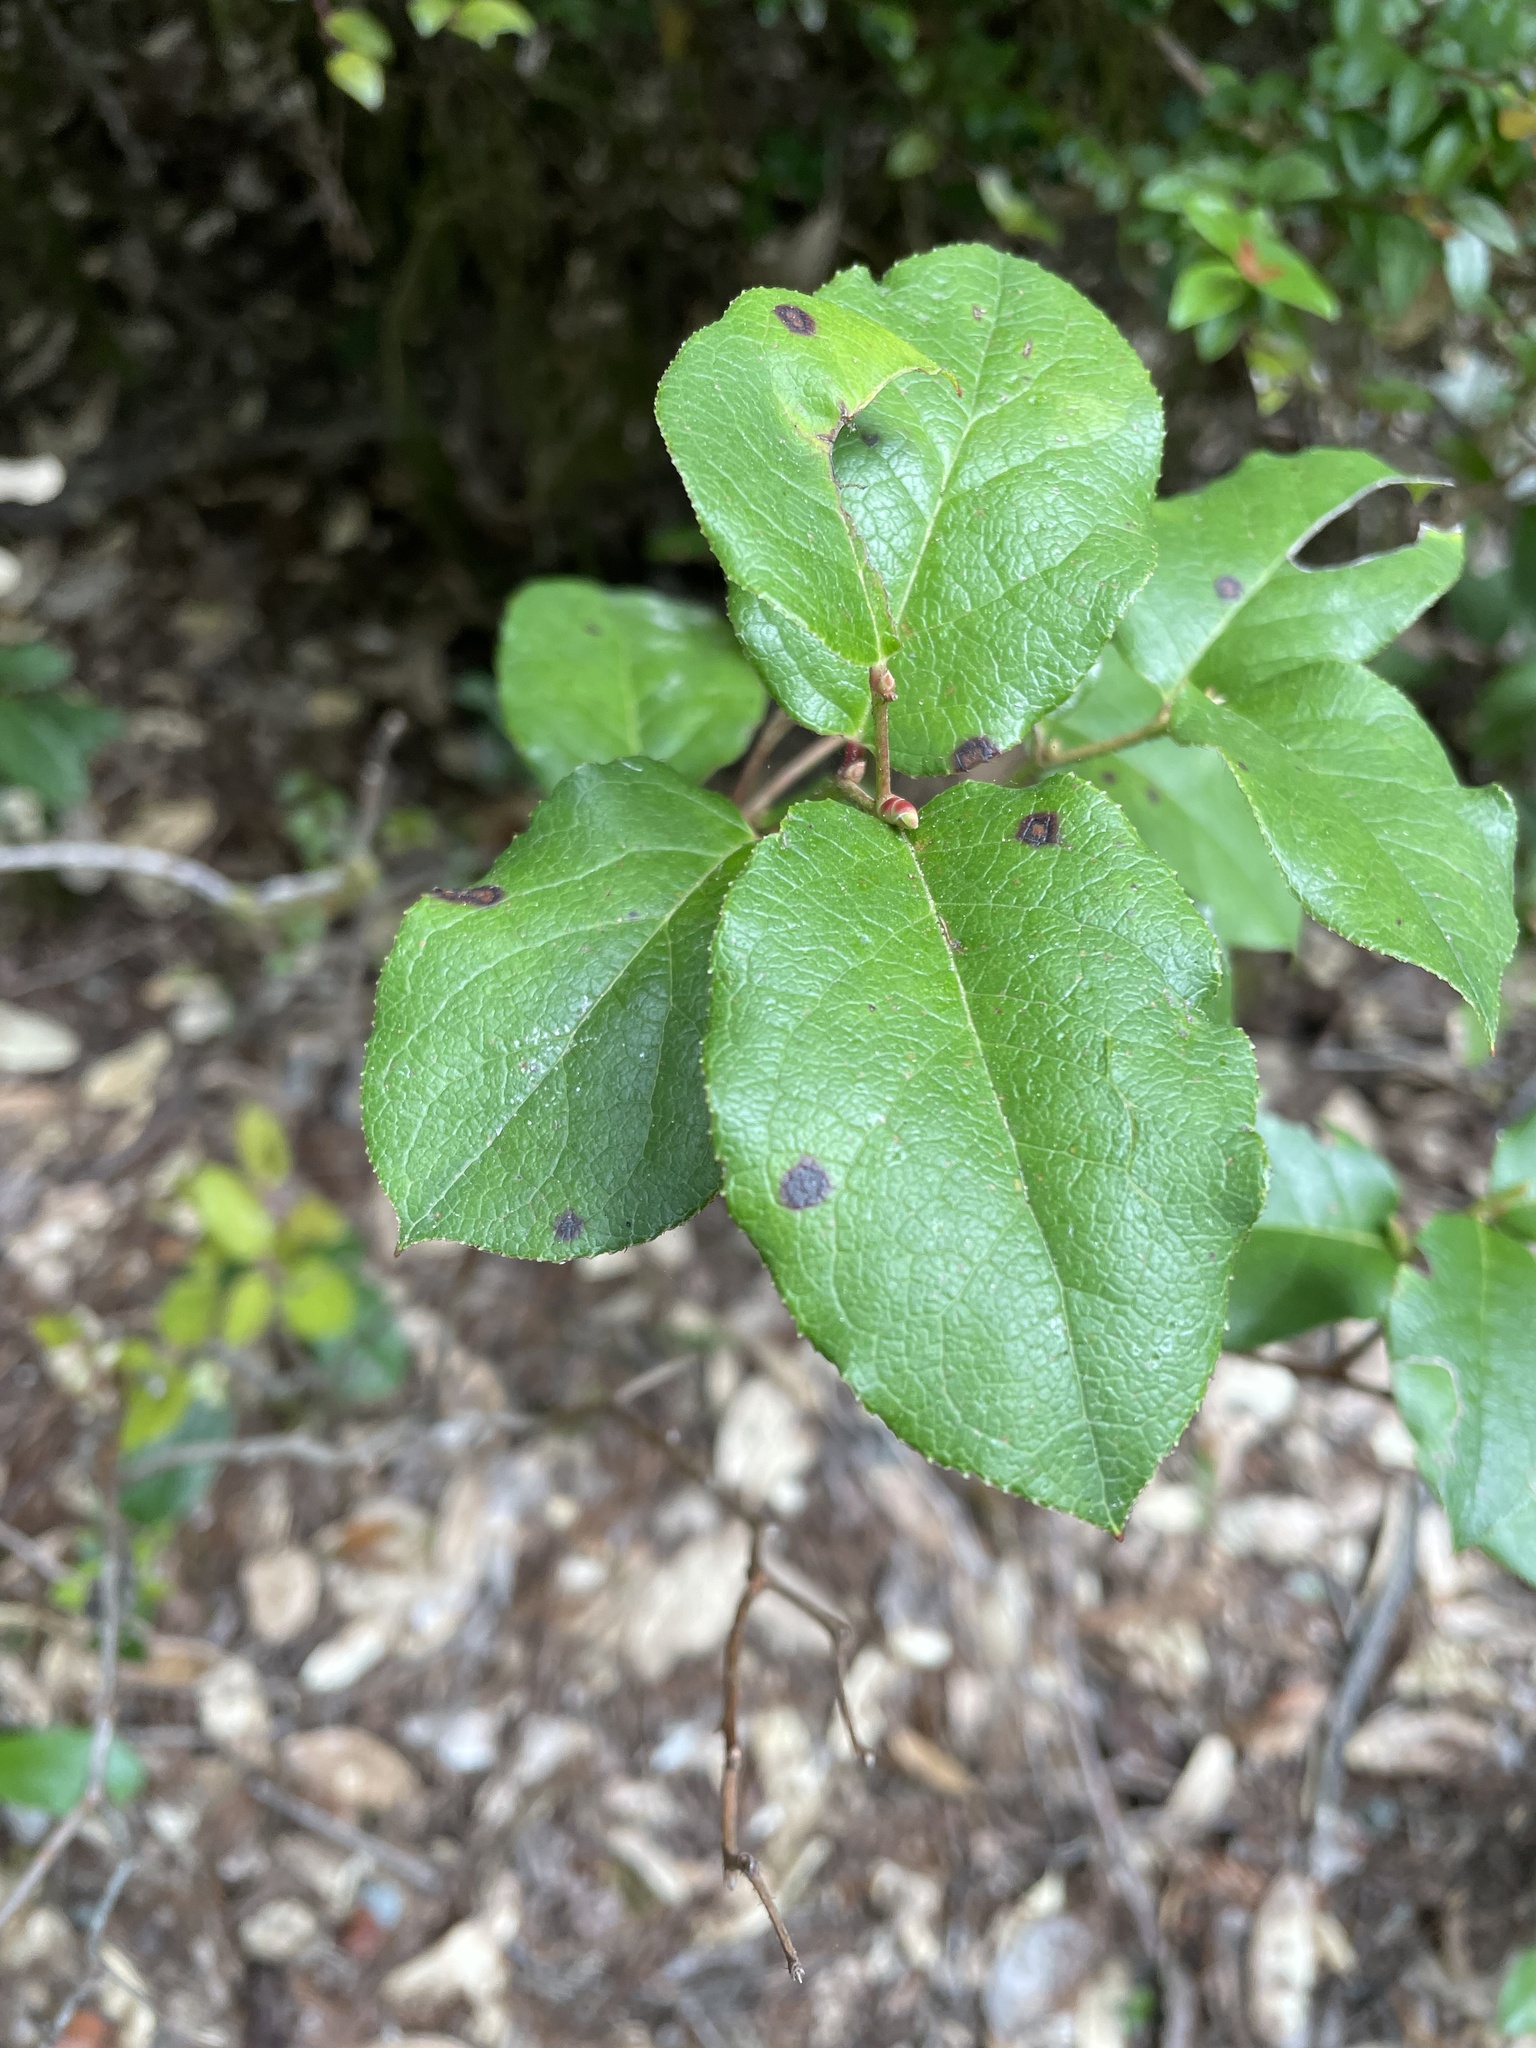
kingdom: Plantae
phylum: Tracheophyta
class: Magnoliopsida
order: Ericales
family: Ericaceae
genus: Gaultheria
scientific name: Gaultheria shallon
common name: Shallon
